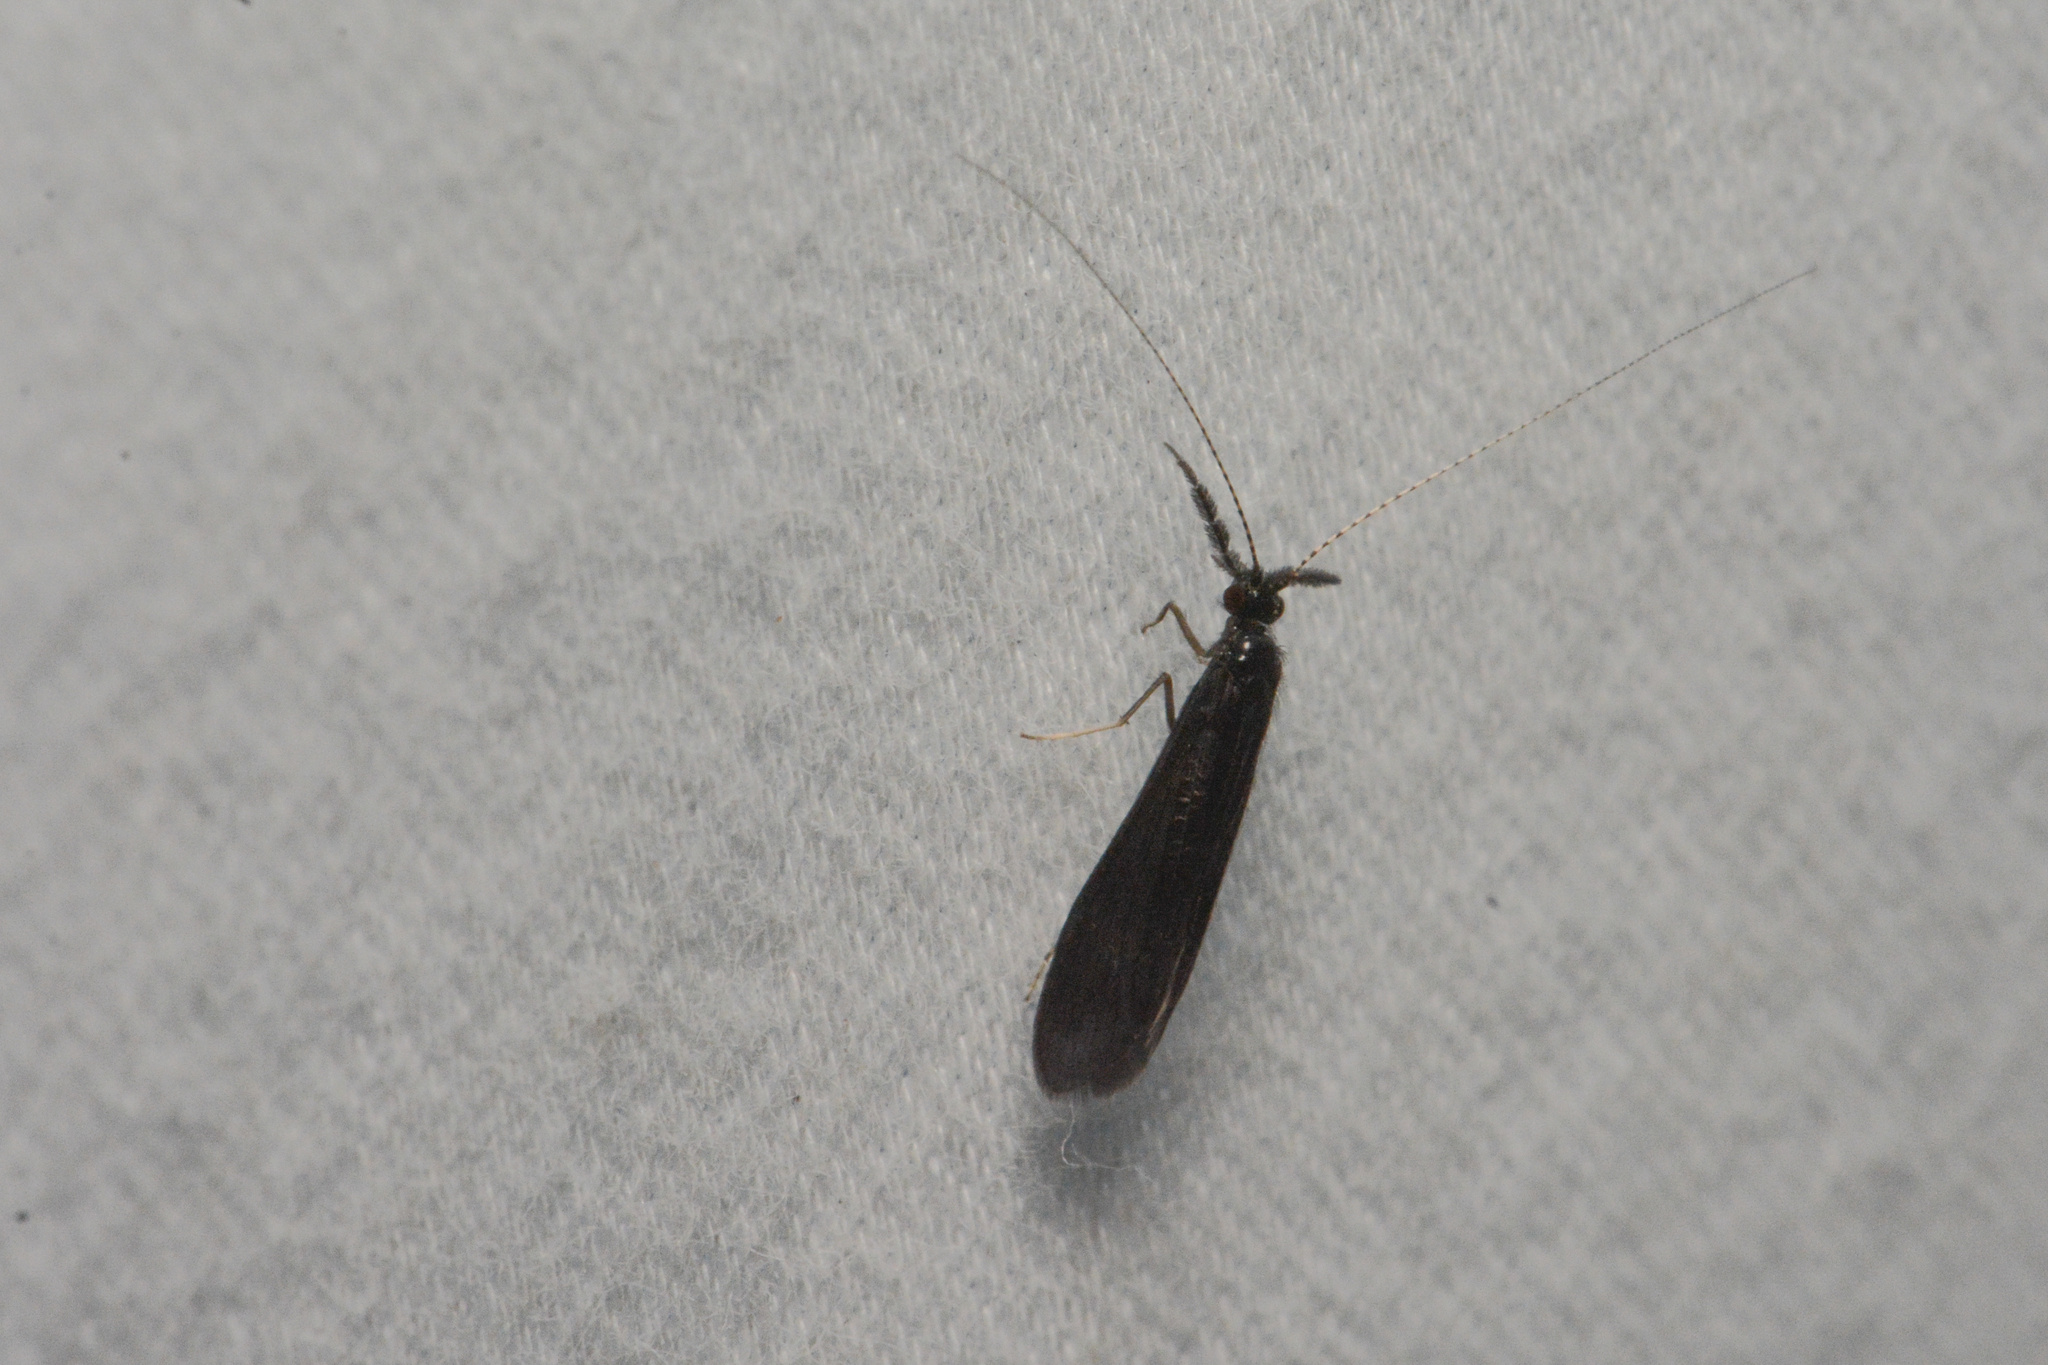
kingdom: Animalia
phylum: Arthropoda
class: Insecta
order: Trichoptera
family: Leptoceridae
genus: Mystacides
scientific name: Mystacides alafimbriatus
